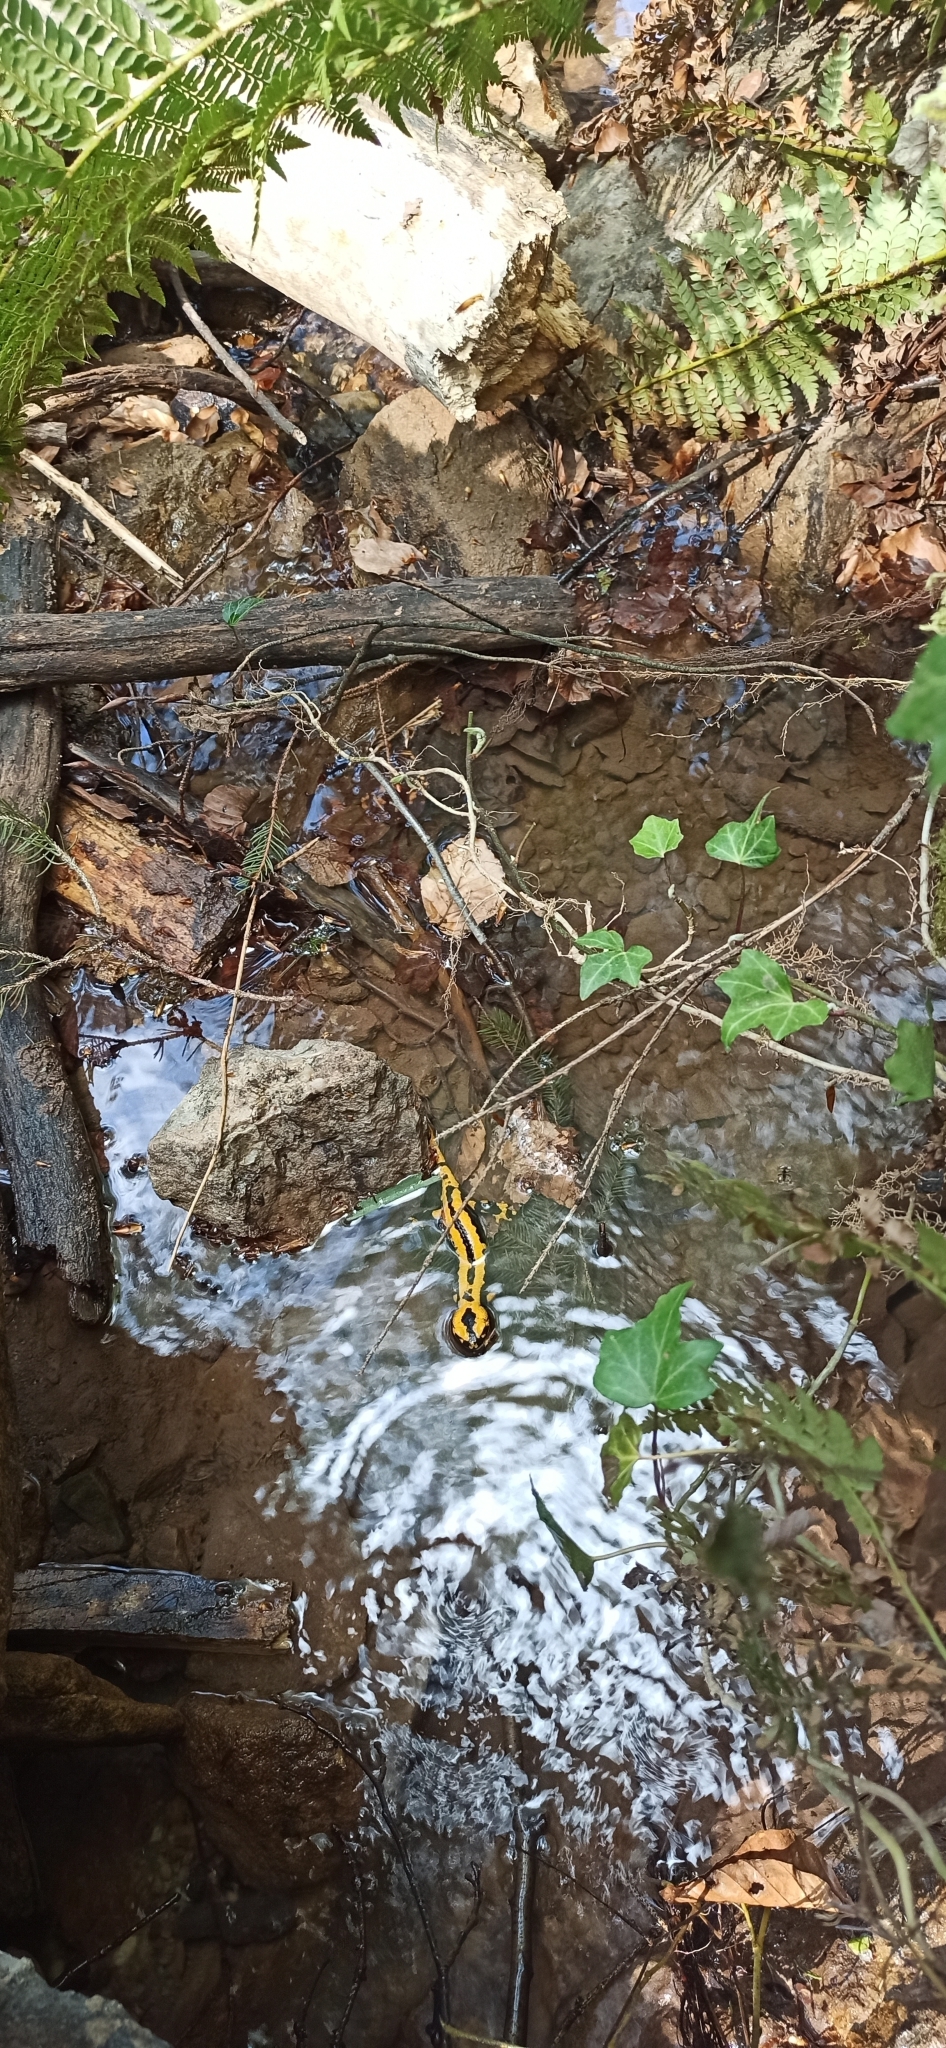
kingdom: Animalia
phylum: Chordata
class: Amphibia
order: Caudata
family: Salamandridae
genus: Salamandra
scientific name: Salamandra salamandra
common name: Fire salamander
